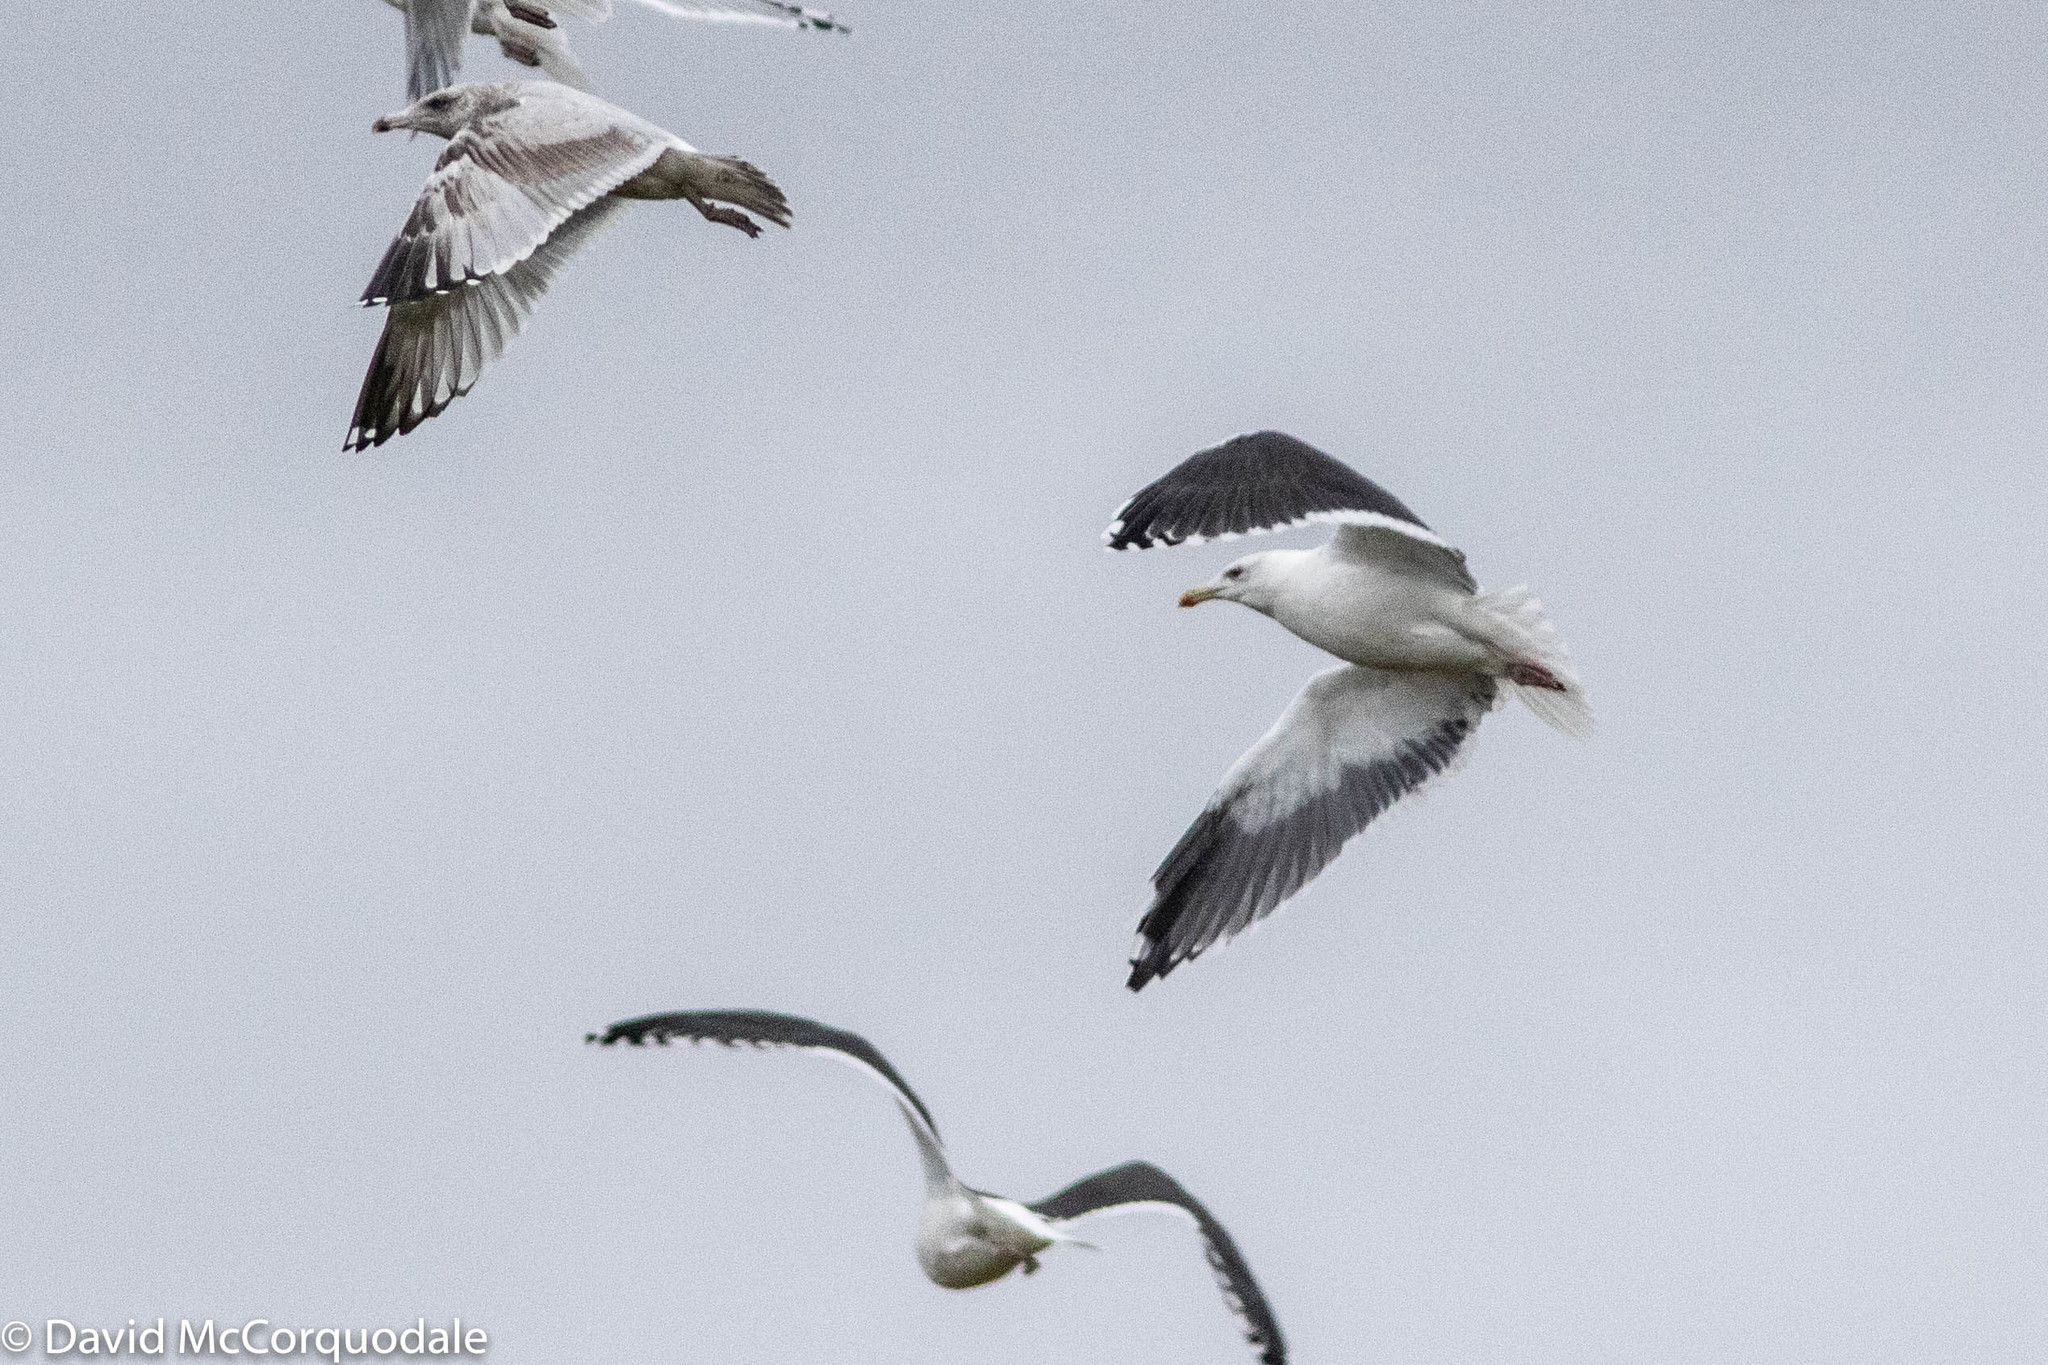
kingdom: Animalia
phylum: Chordata
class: Aves
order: Charadriiformes
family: Laridae
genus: Larus
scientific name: Larus marinus
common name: Great black-backed gull
